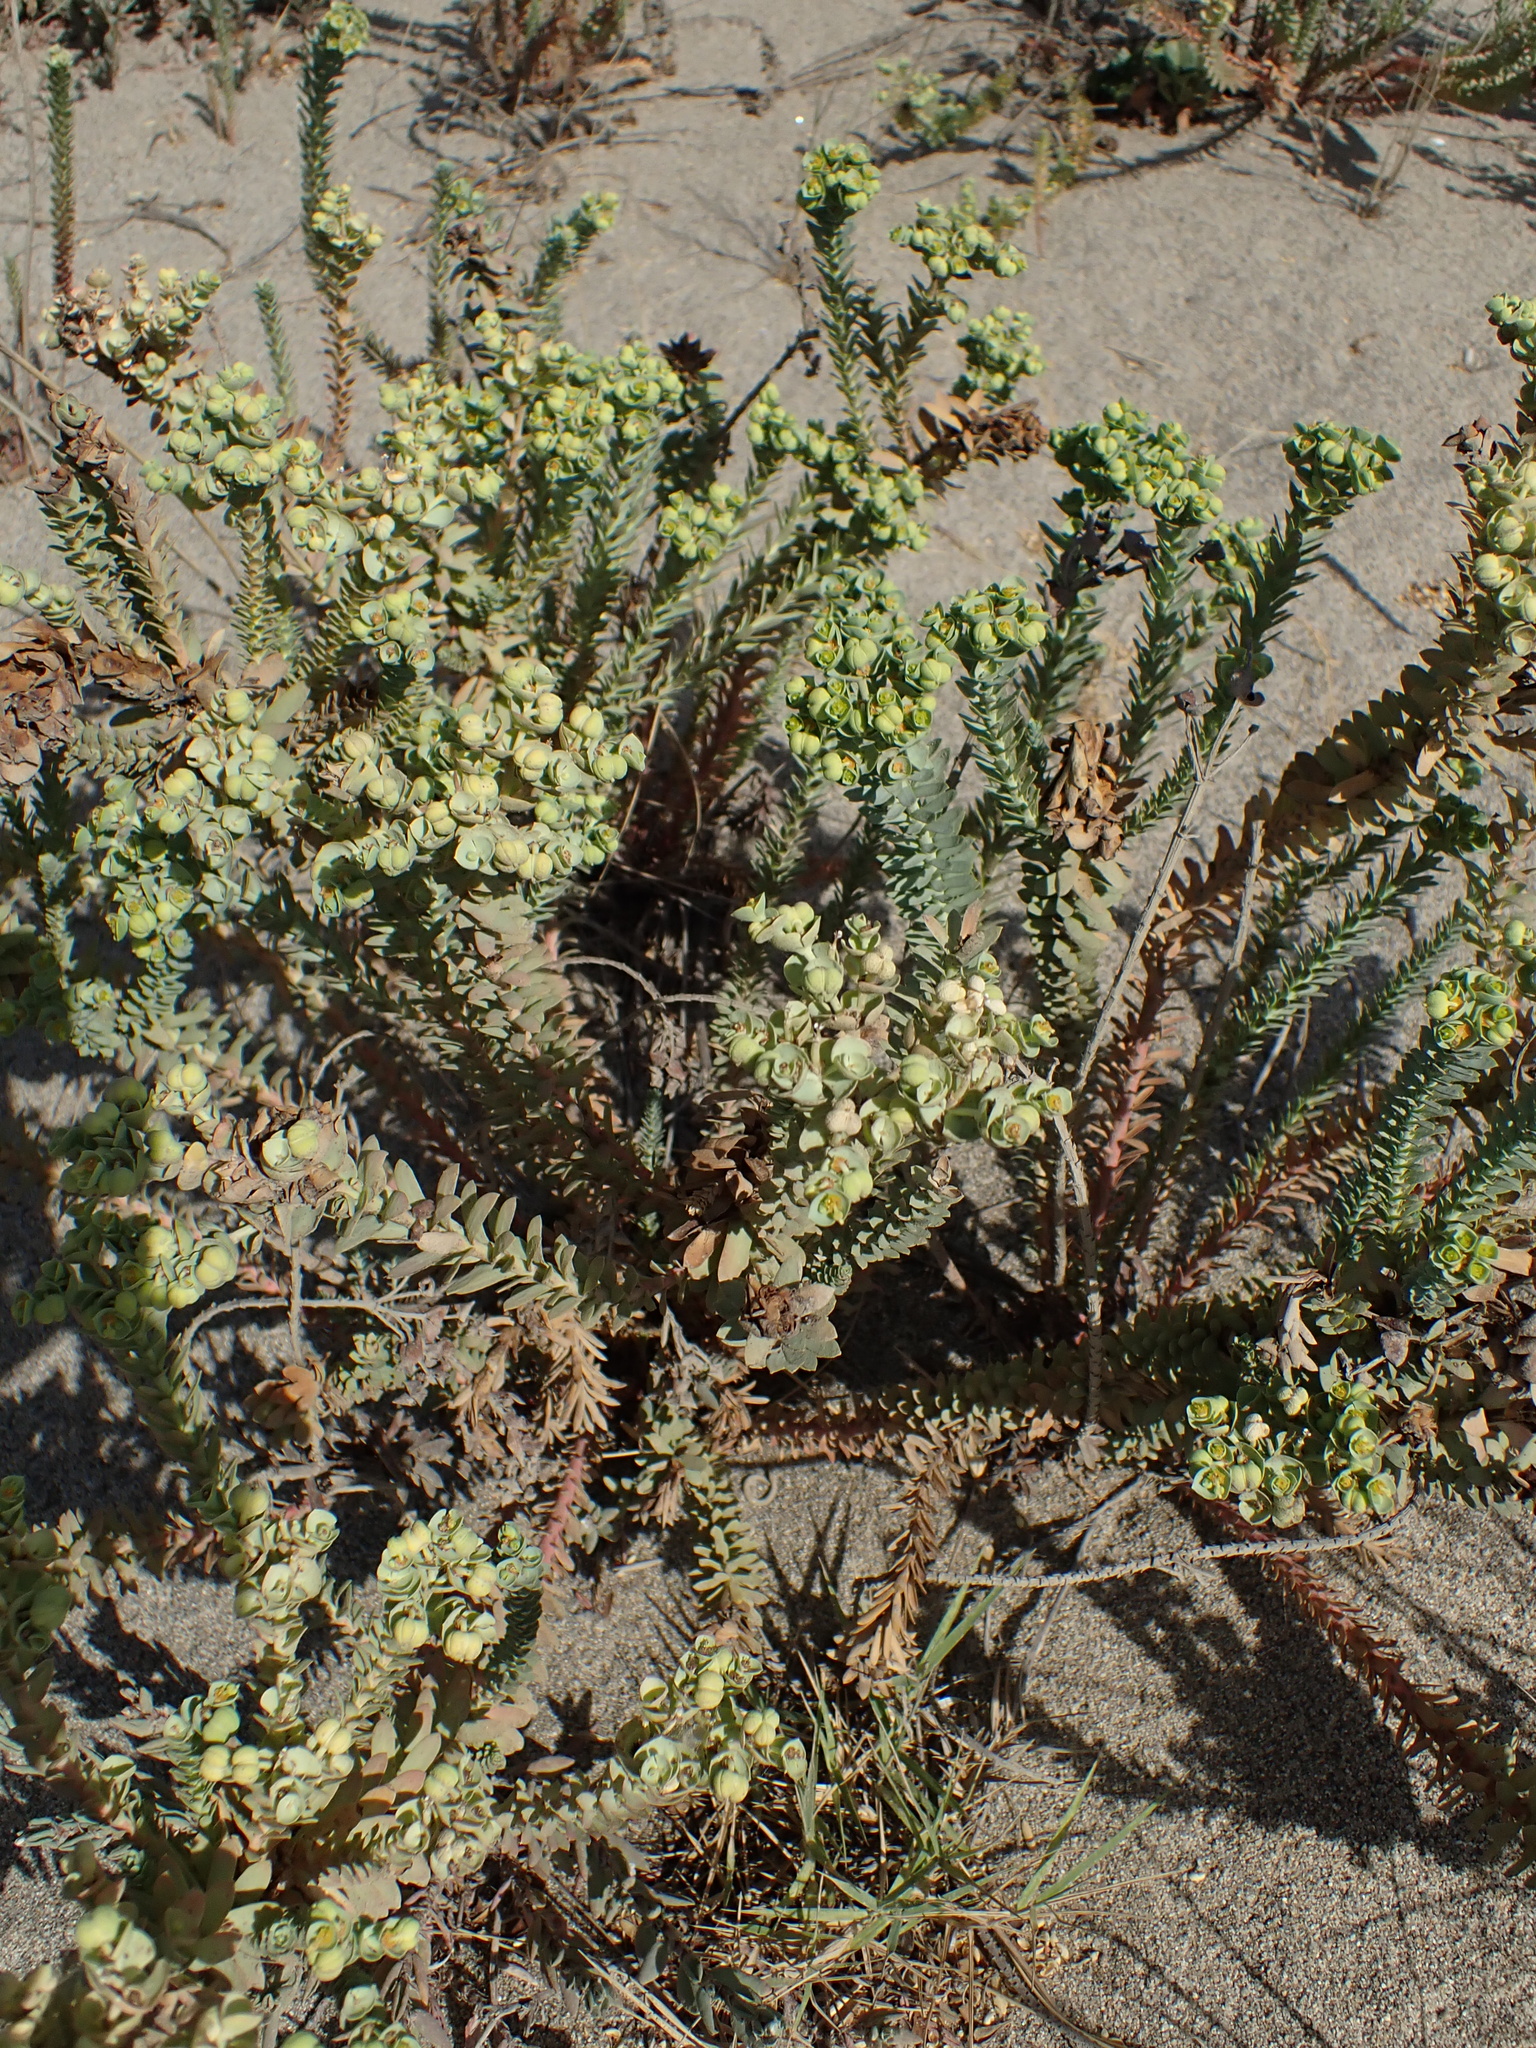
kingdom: Plantae
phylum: Tracheophyta
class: Magnoliopsida
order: Malpighiales
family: Euphorbiaceae
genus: Euphorbia
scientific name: Euphorbia paralias
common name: Sea spurge
